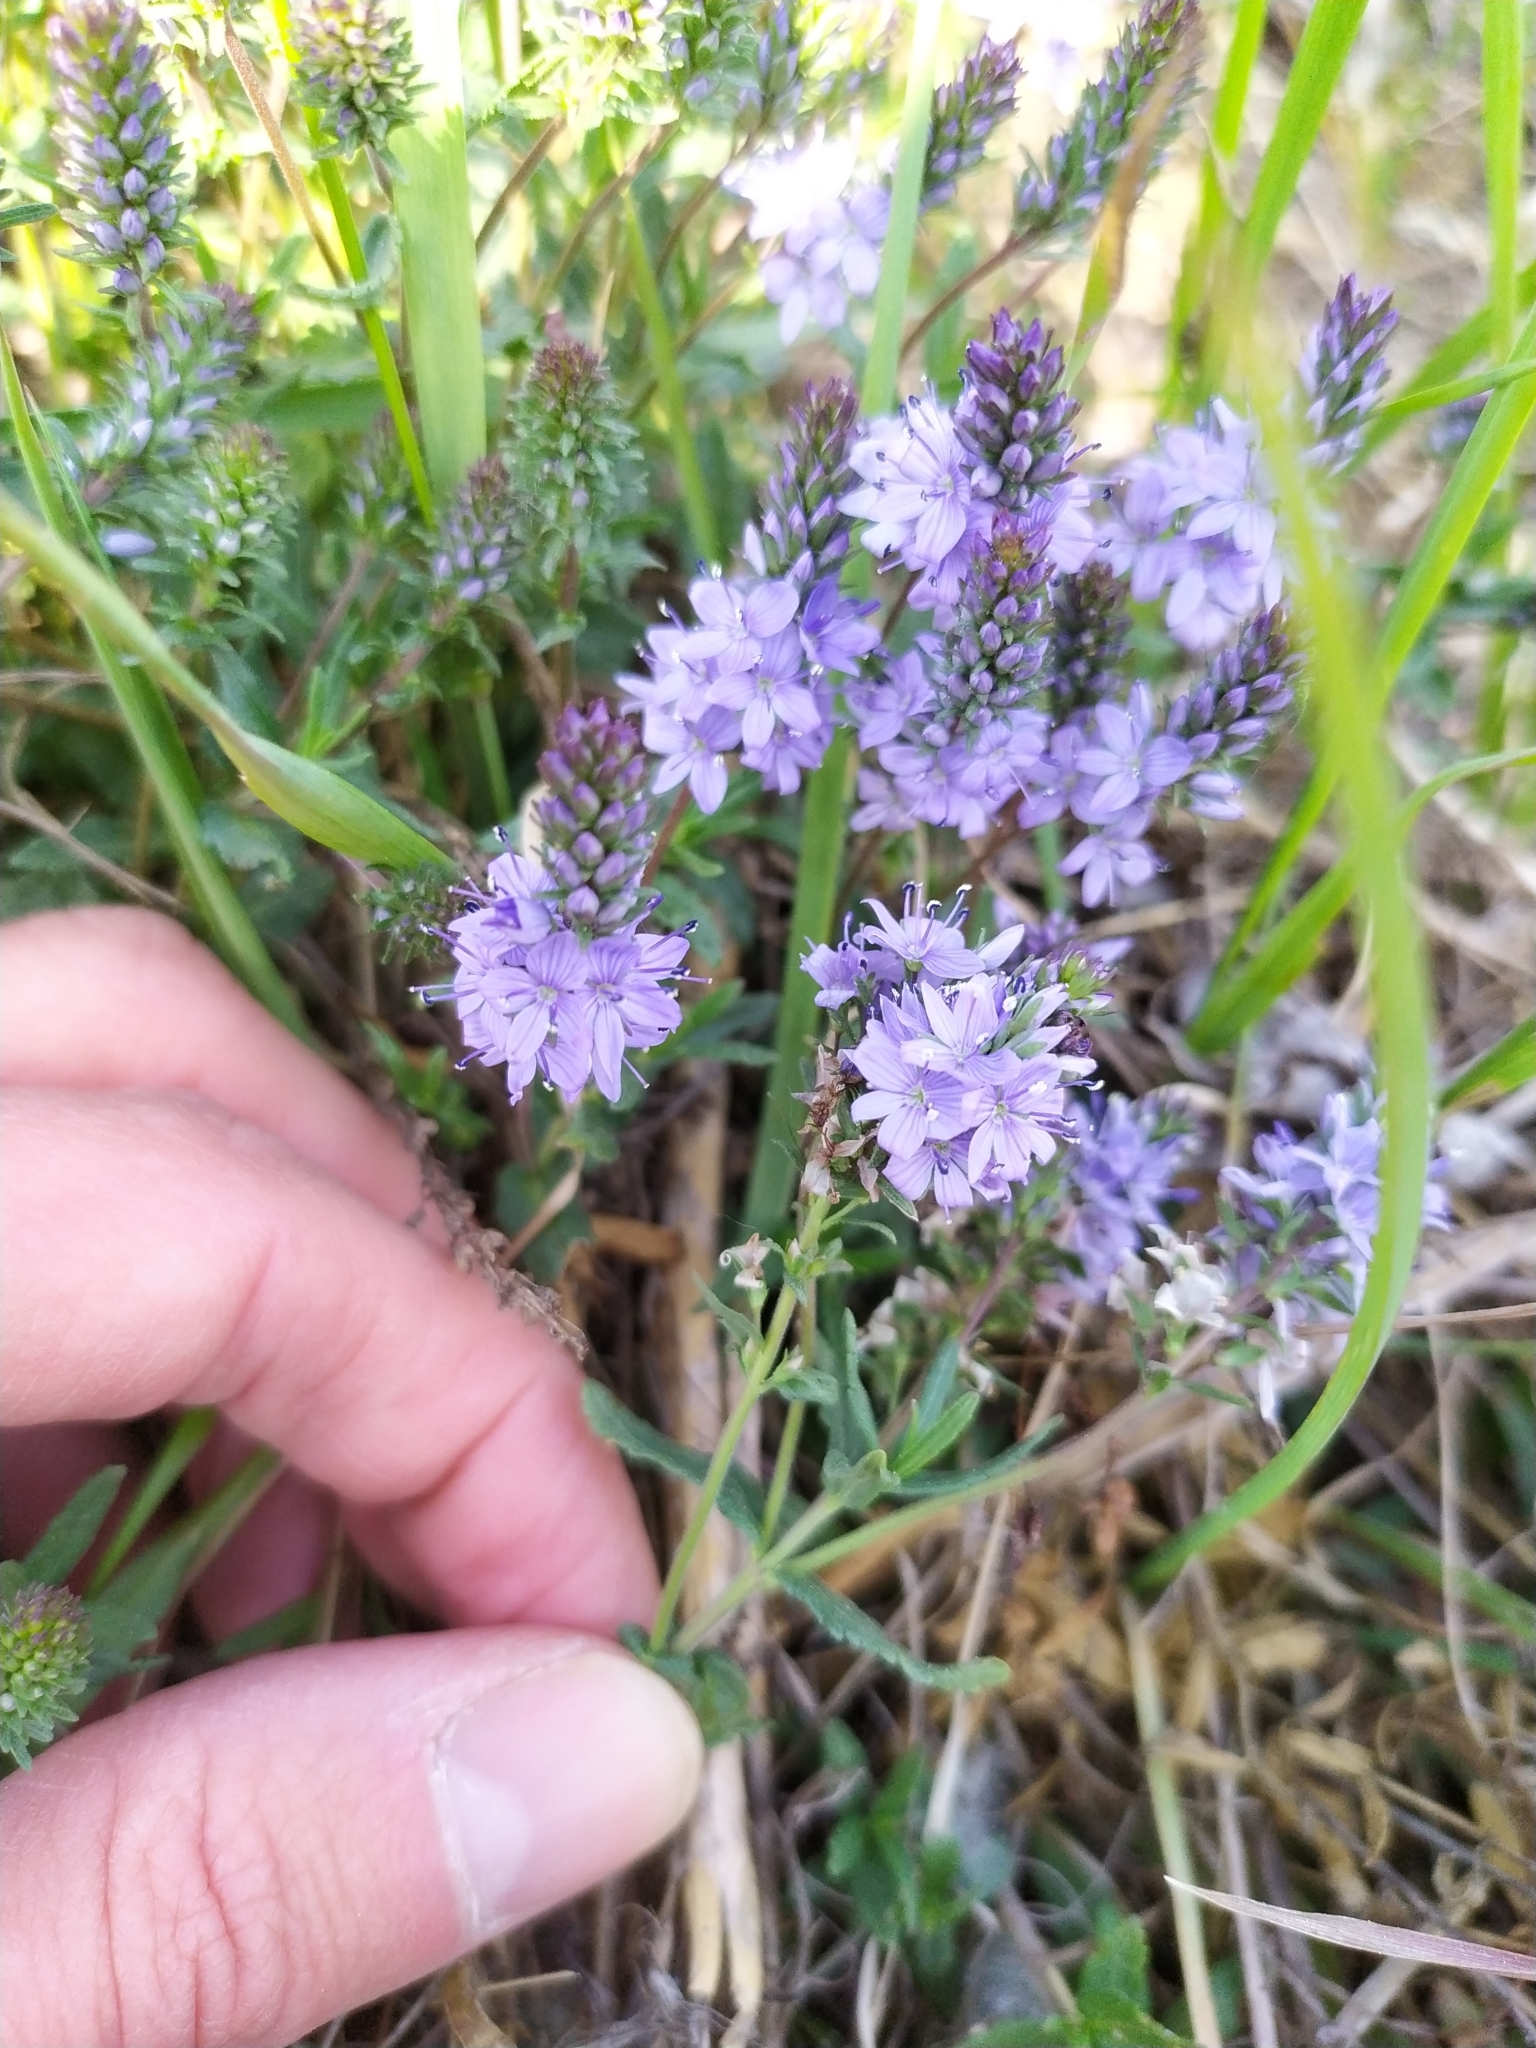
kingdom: Plantae
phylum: Tracheophyta
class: Magnoliopsida
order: Lamiales
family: Plantaginaceae
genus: Veronica
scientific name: Veronica prostrata
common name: Prostrate speedwell
